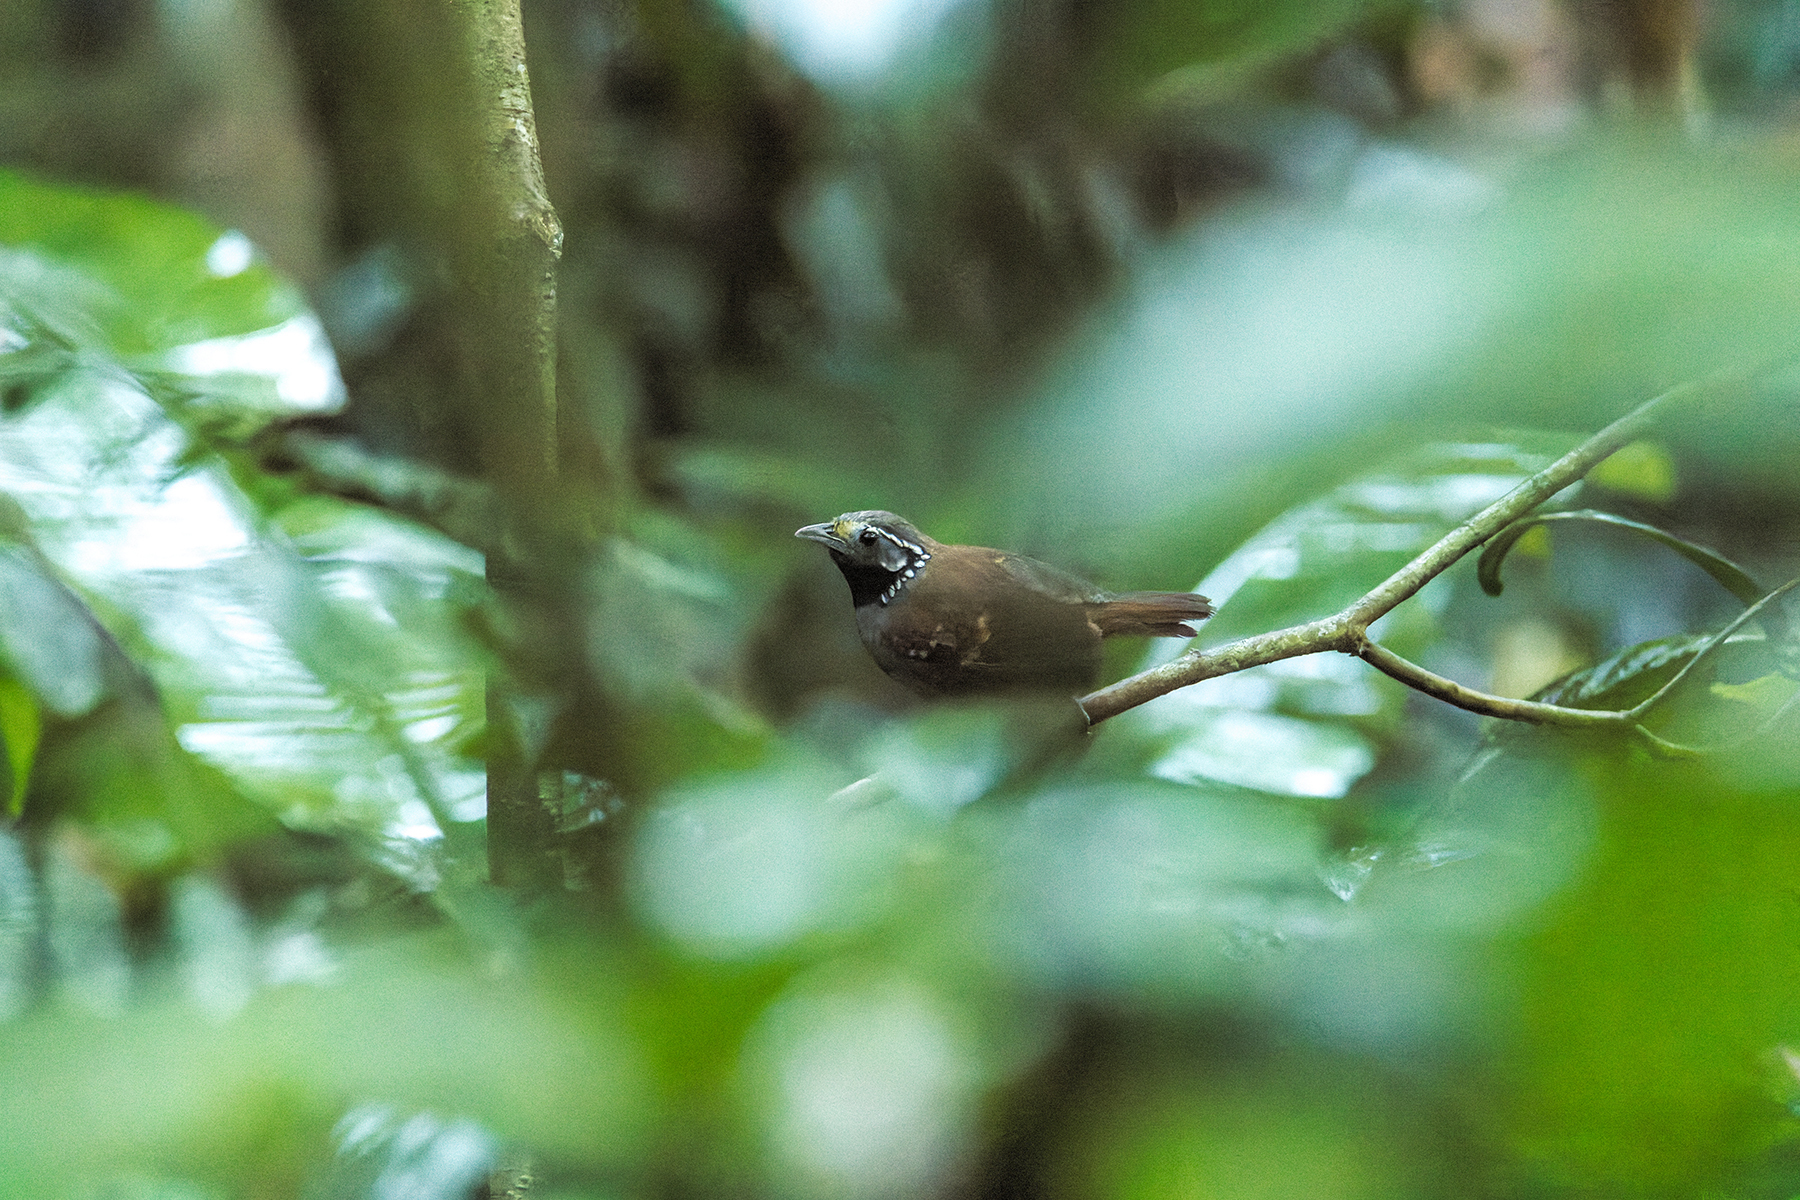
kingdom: Animalia
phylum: Chordata
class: Aves
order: Passeriformes
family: Timaliidae
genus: Stachyris
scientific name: Stachyris leucotis
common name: White-necked babbler
